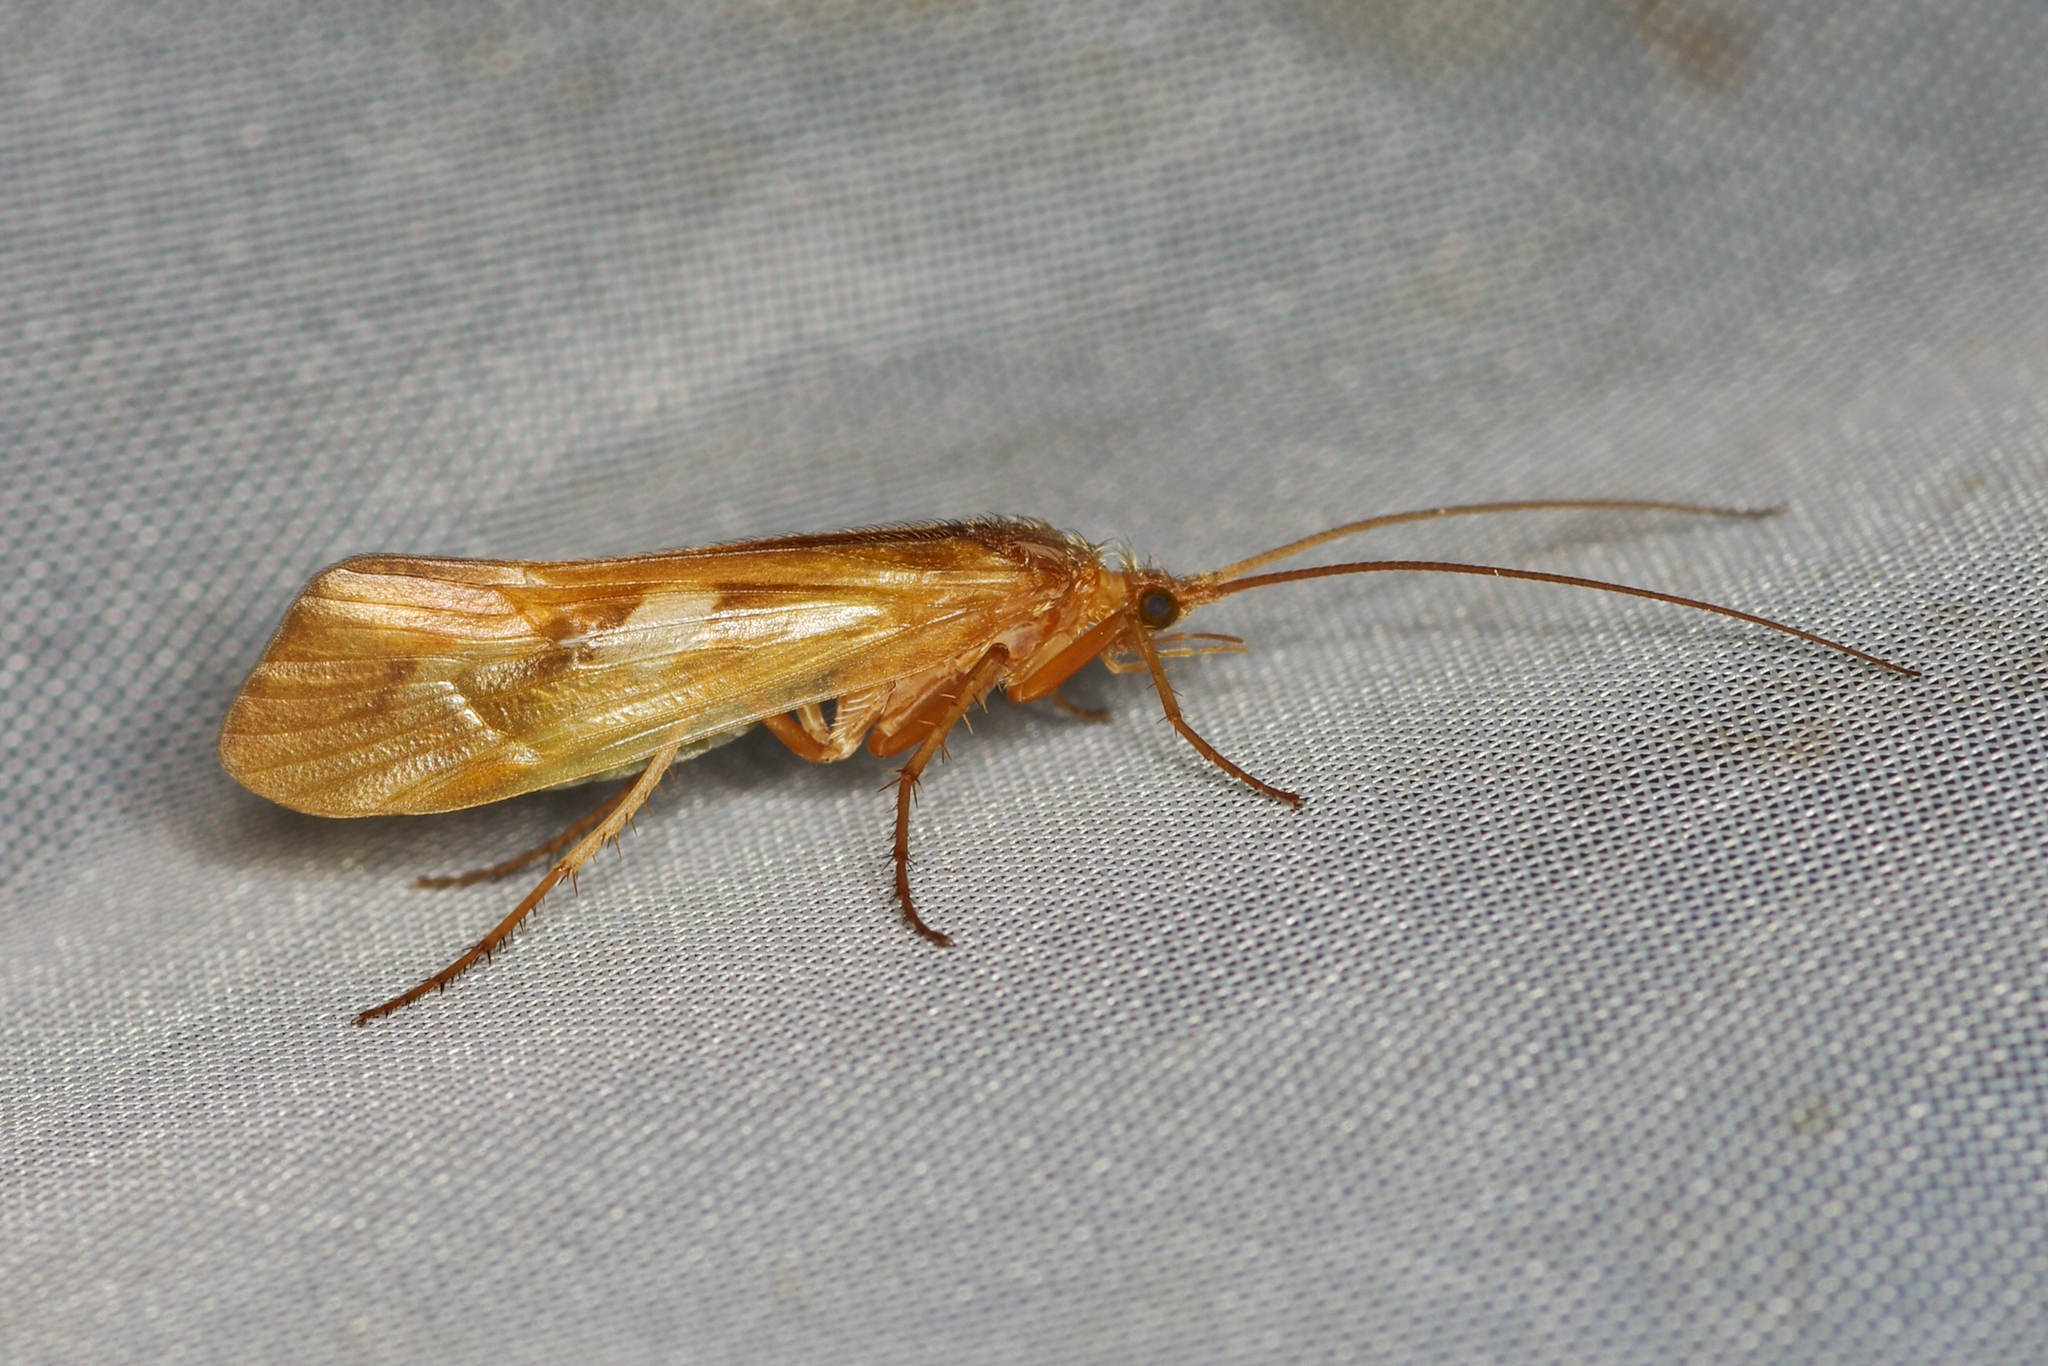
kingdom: Animalia
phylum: Arthropoda
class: Insecta
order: Trichoptera
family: Limnephilidae
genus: Limnephilus
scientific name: Limnephilus rhombicus
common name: Diamond northern caddisfly
